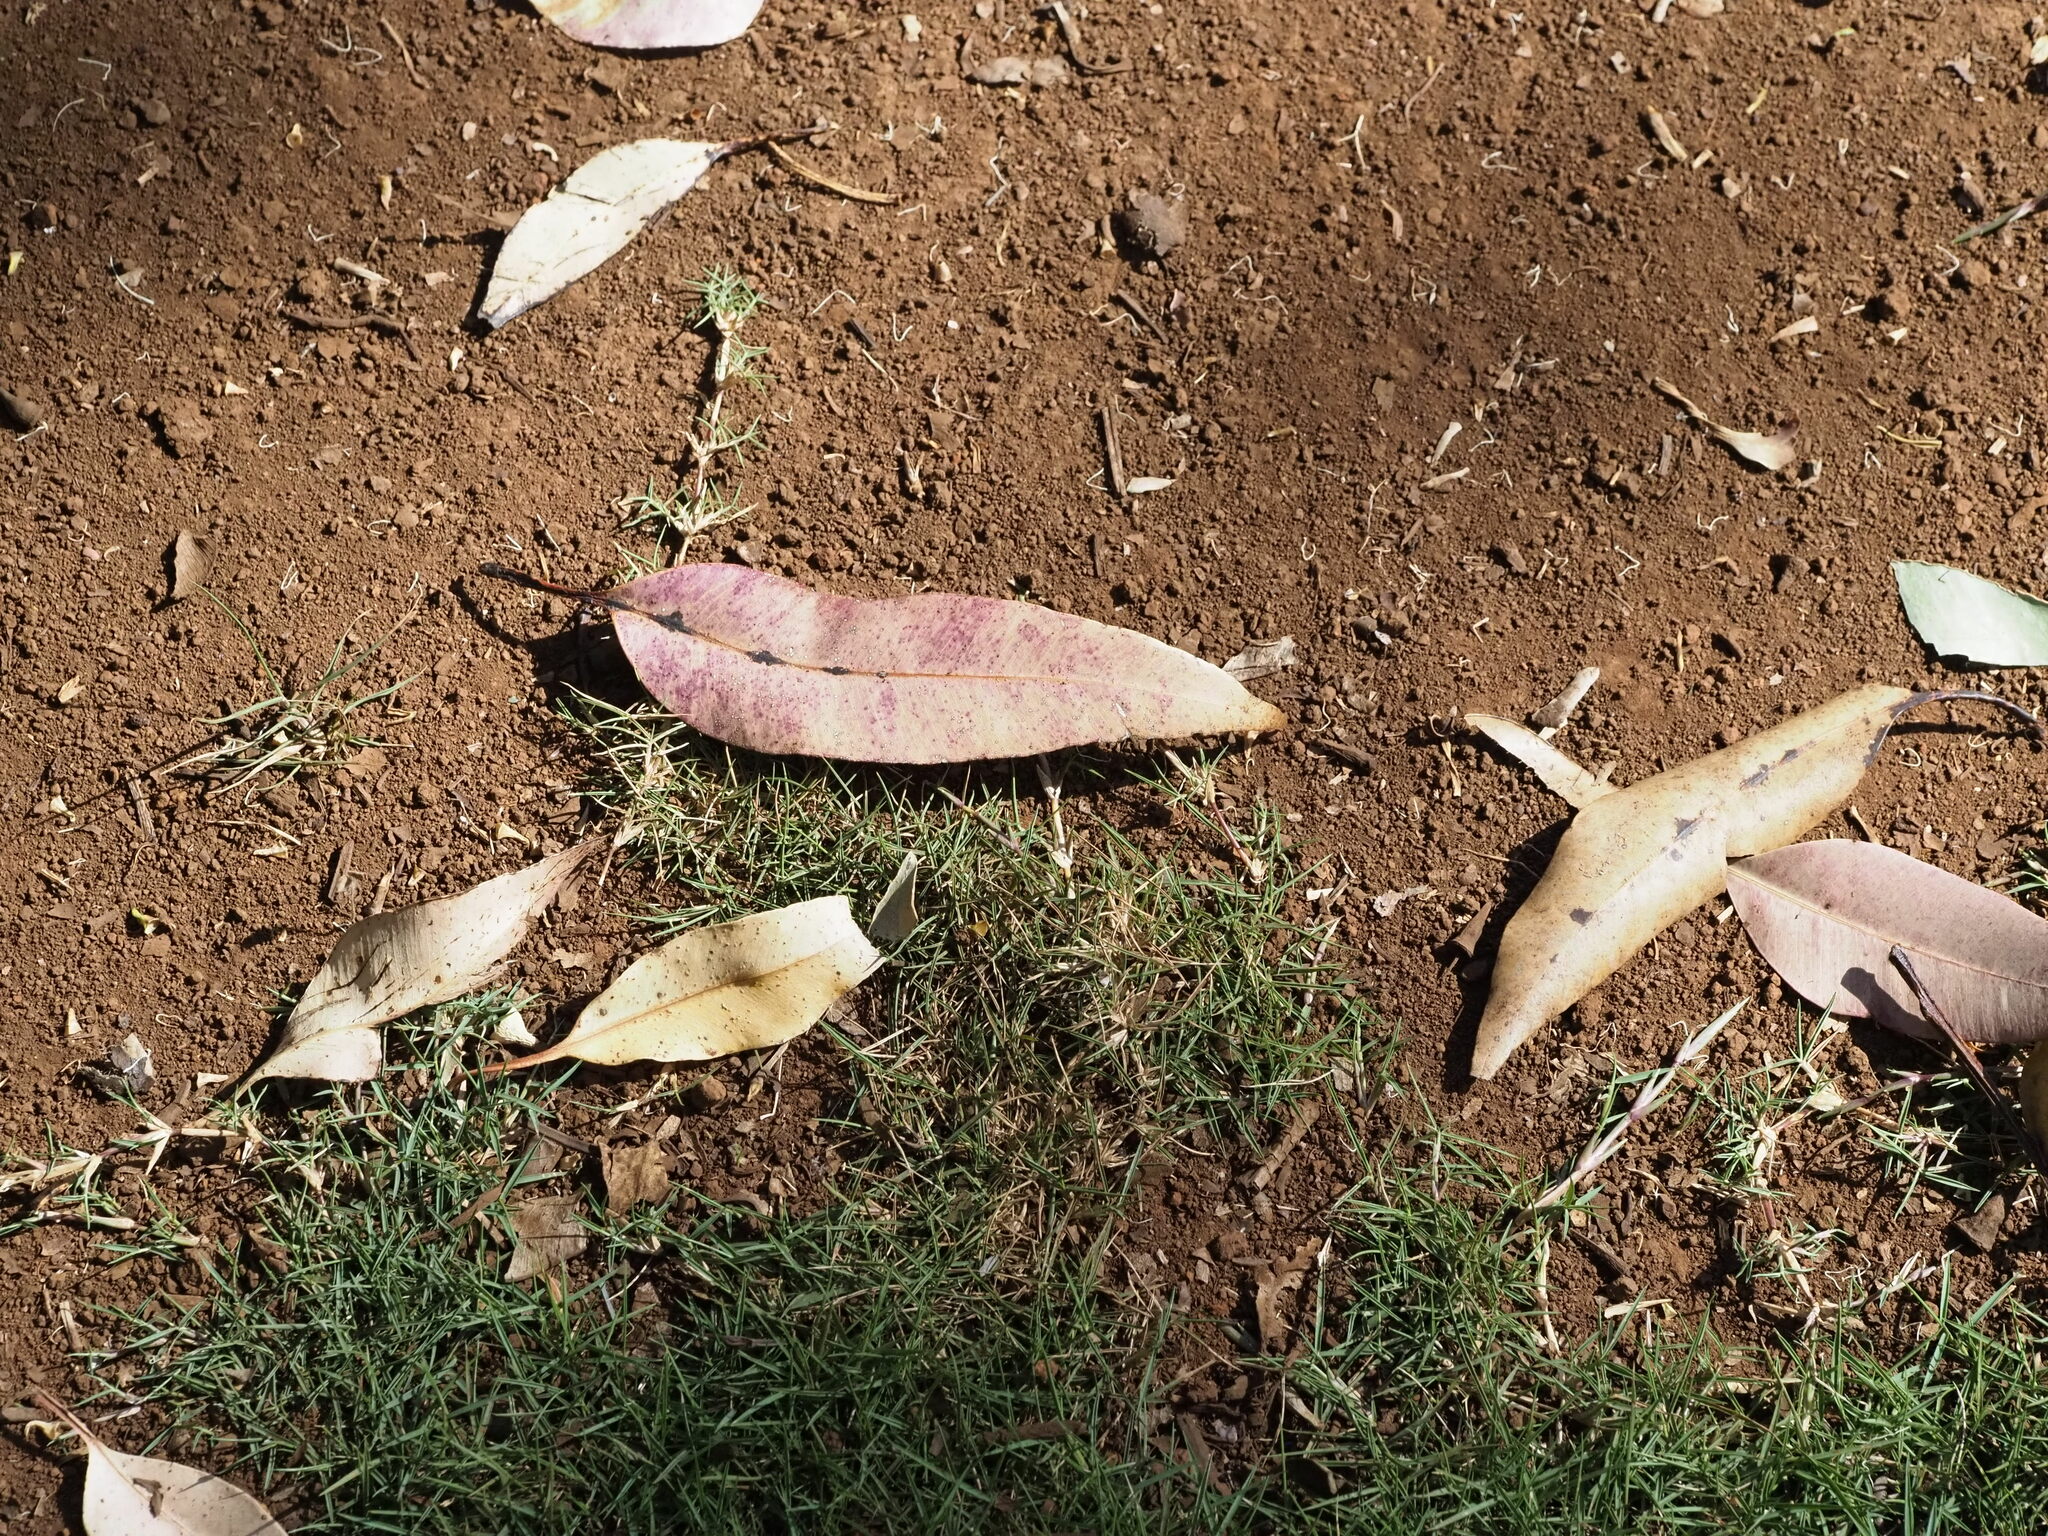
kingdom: Plantae
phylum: Tracheophyta
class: Liliopsida
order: Poales
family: Poaceae
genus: Cynodon
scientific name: Cynodon dactylon
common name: Bermuda grass
